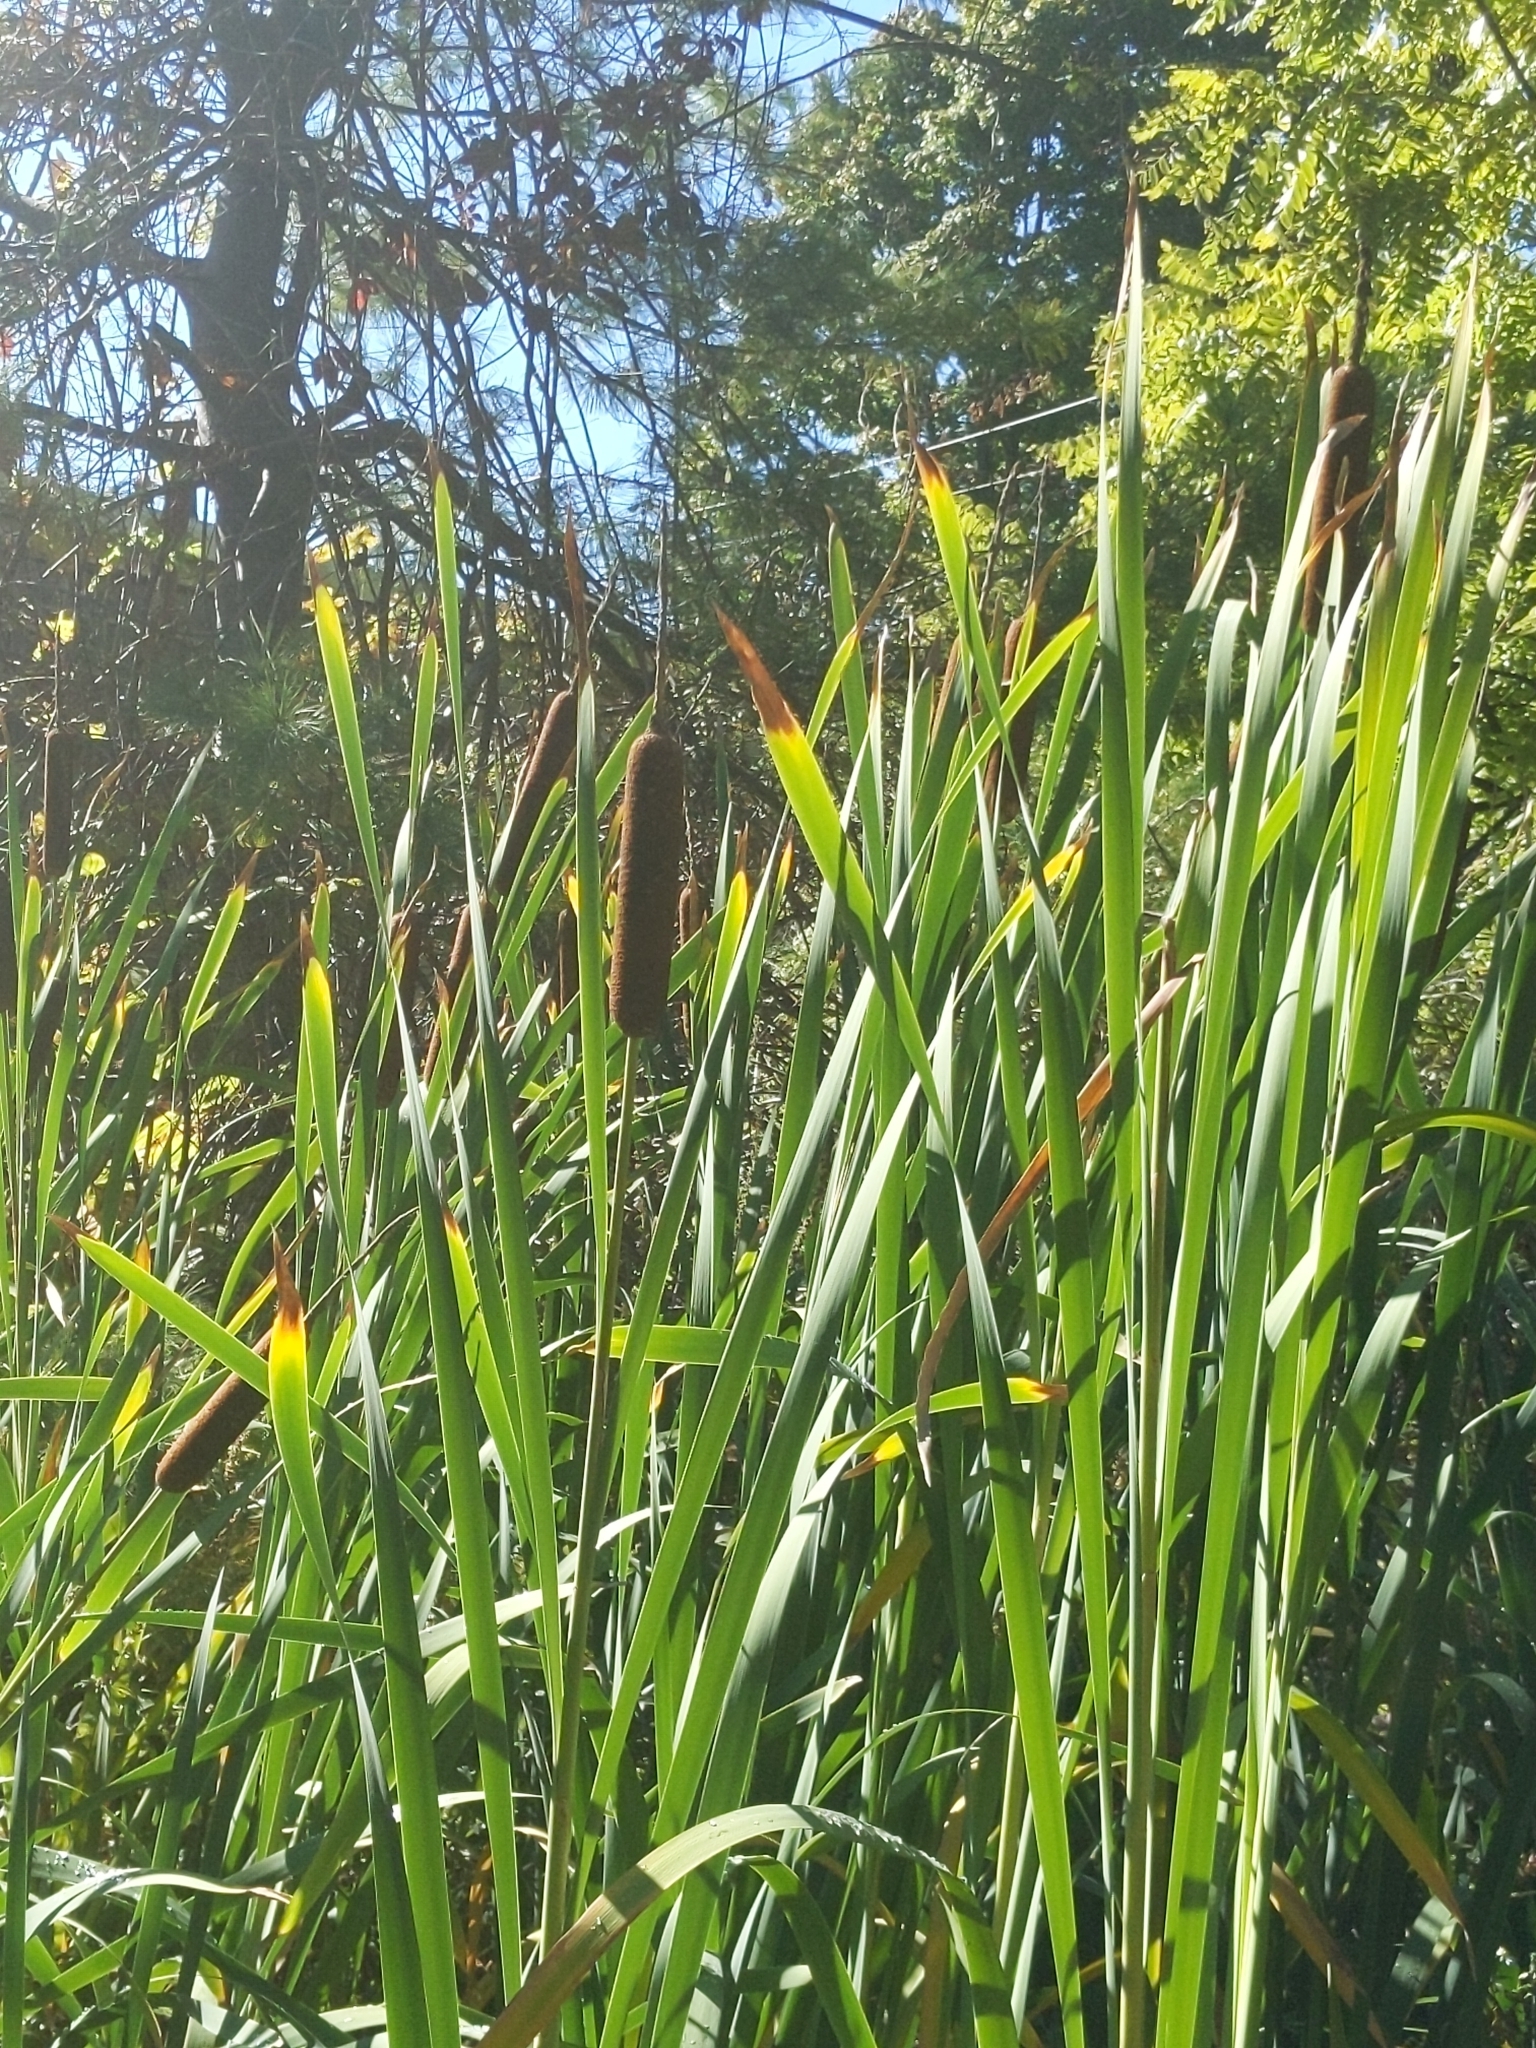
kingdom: Plantae
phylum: Tracheophyta
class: Liliopsida
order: Poales
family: Typhaceae
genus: Typha
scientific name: Typha latifolia
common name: Broadleaf cattail
